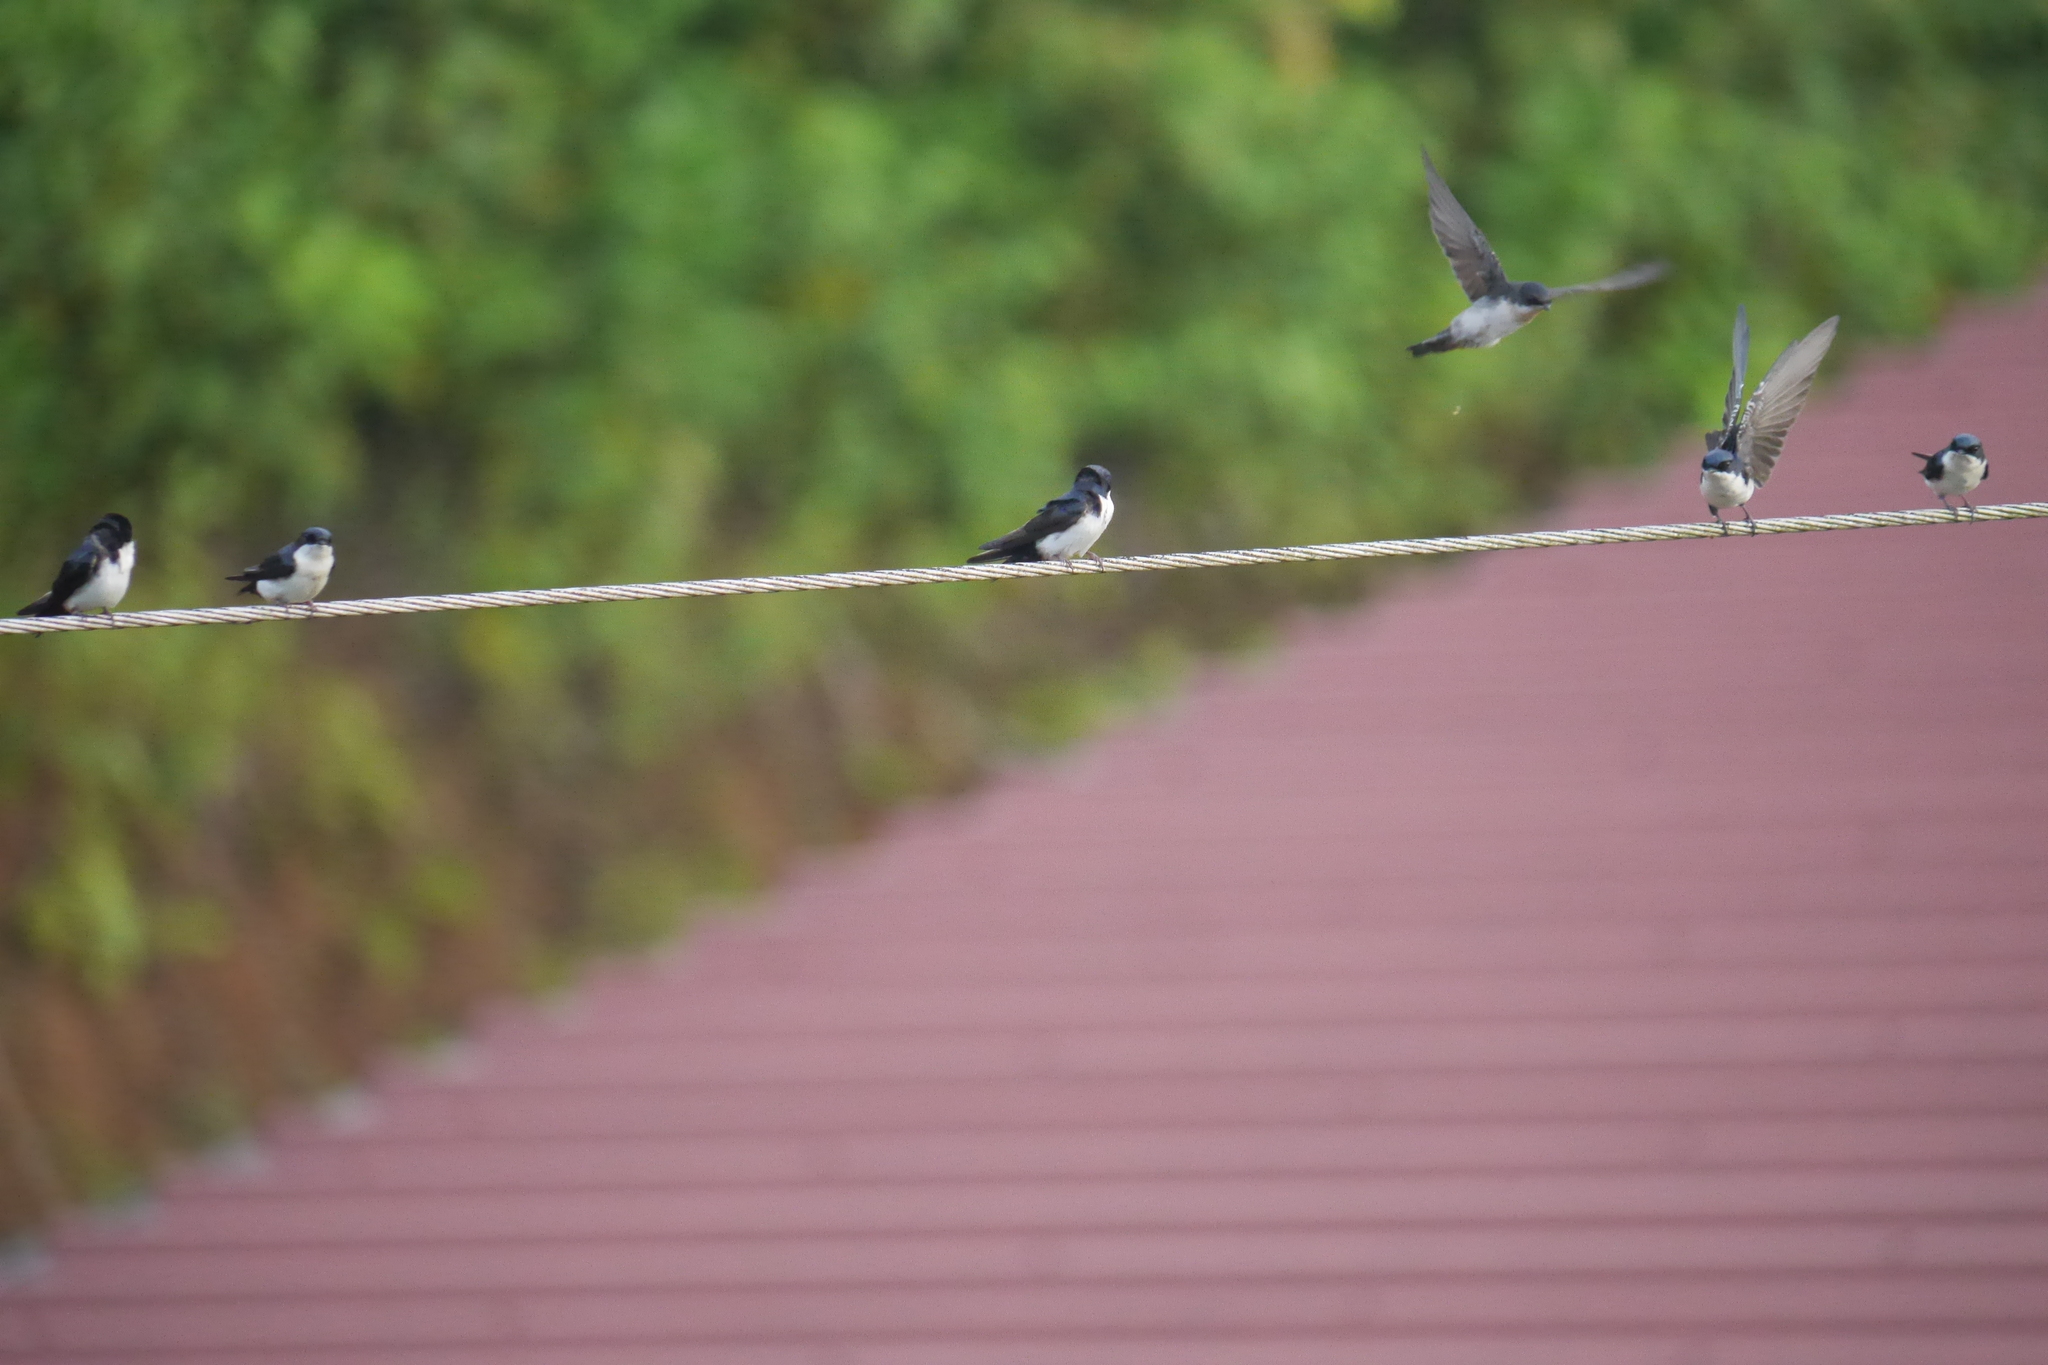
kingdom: Animalia
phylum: Chordata
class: Aves
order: Passeriformes
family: Hirundinidae
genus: Notiochelidon
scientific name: Notiochelidon cyanoleuca
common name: Blue-and-white swallow
